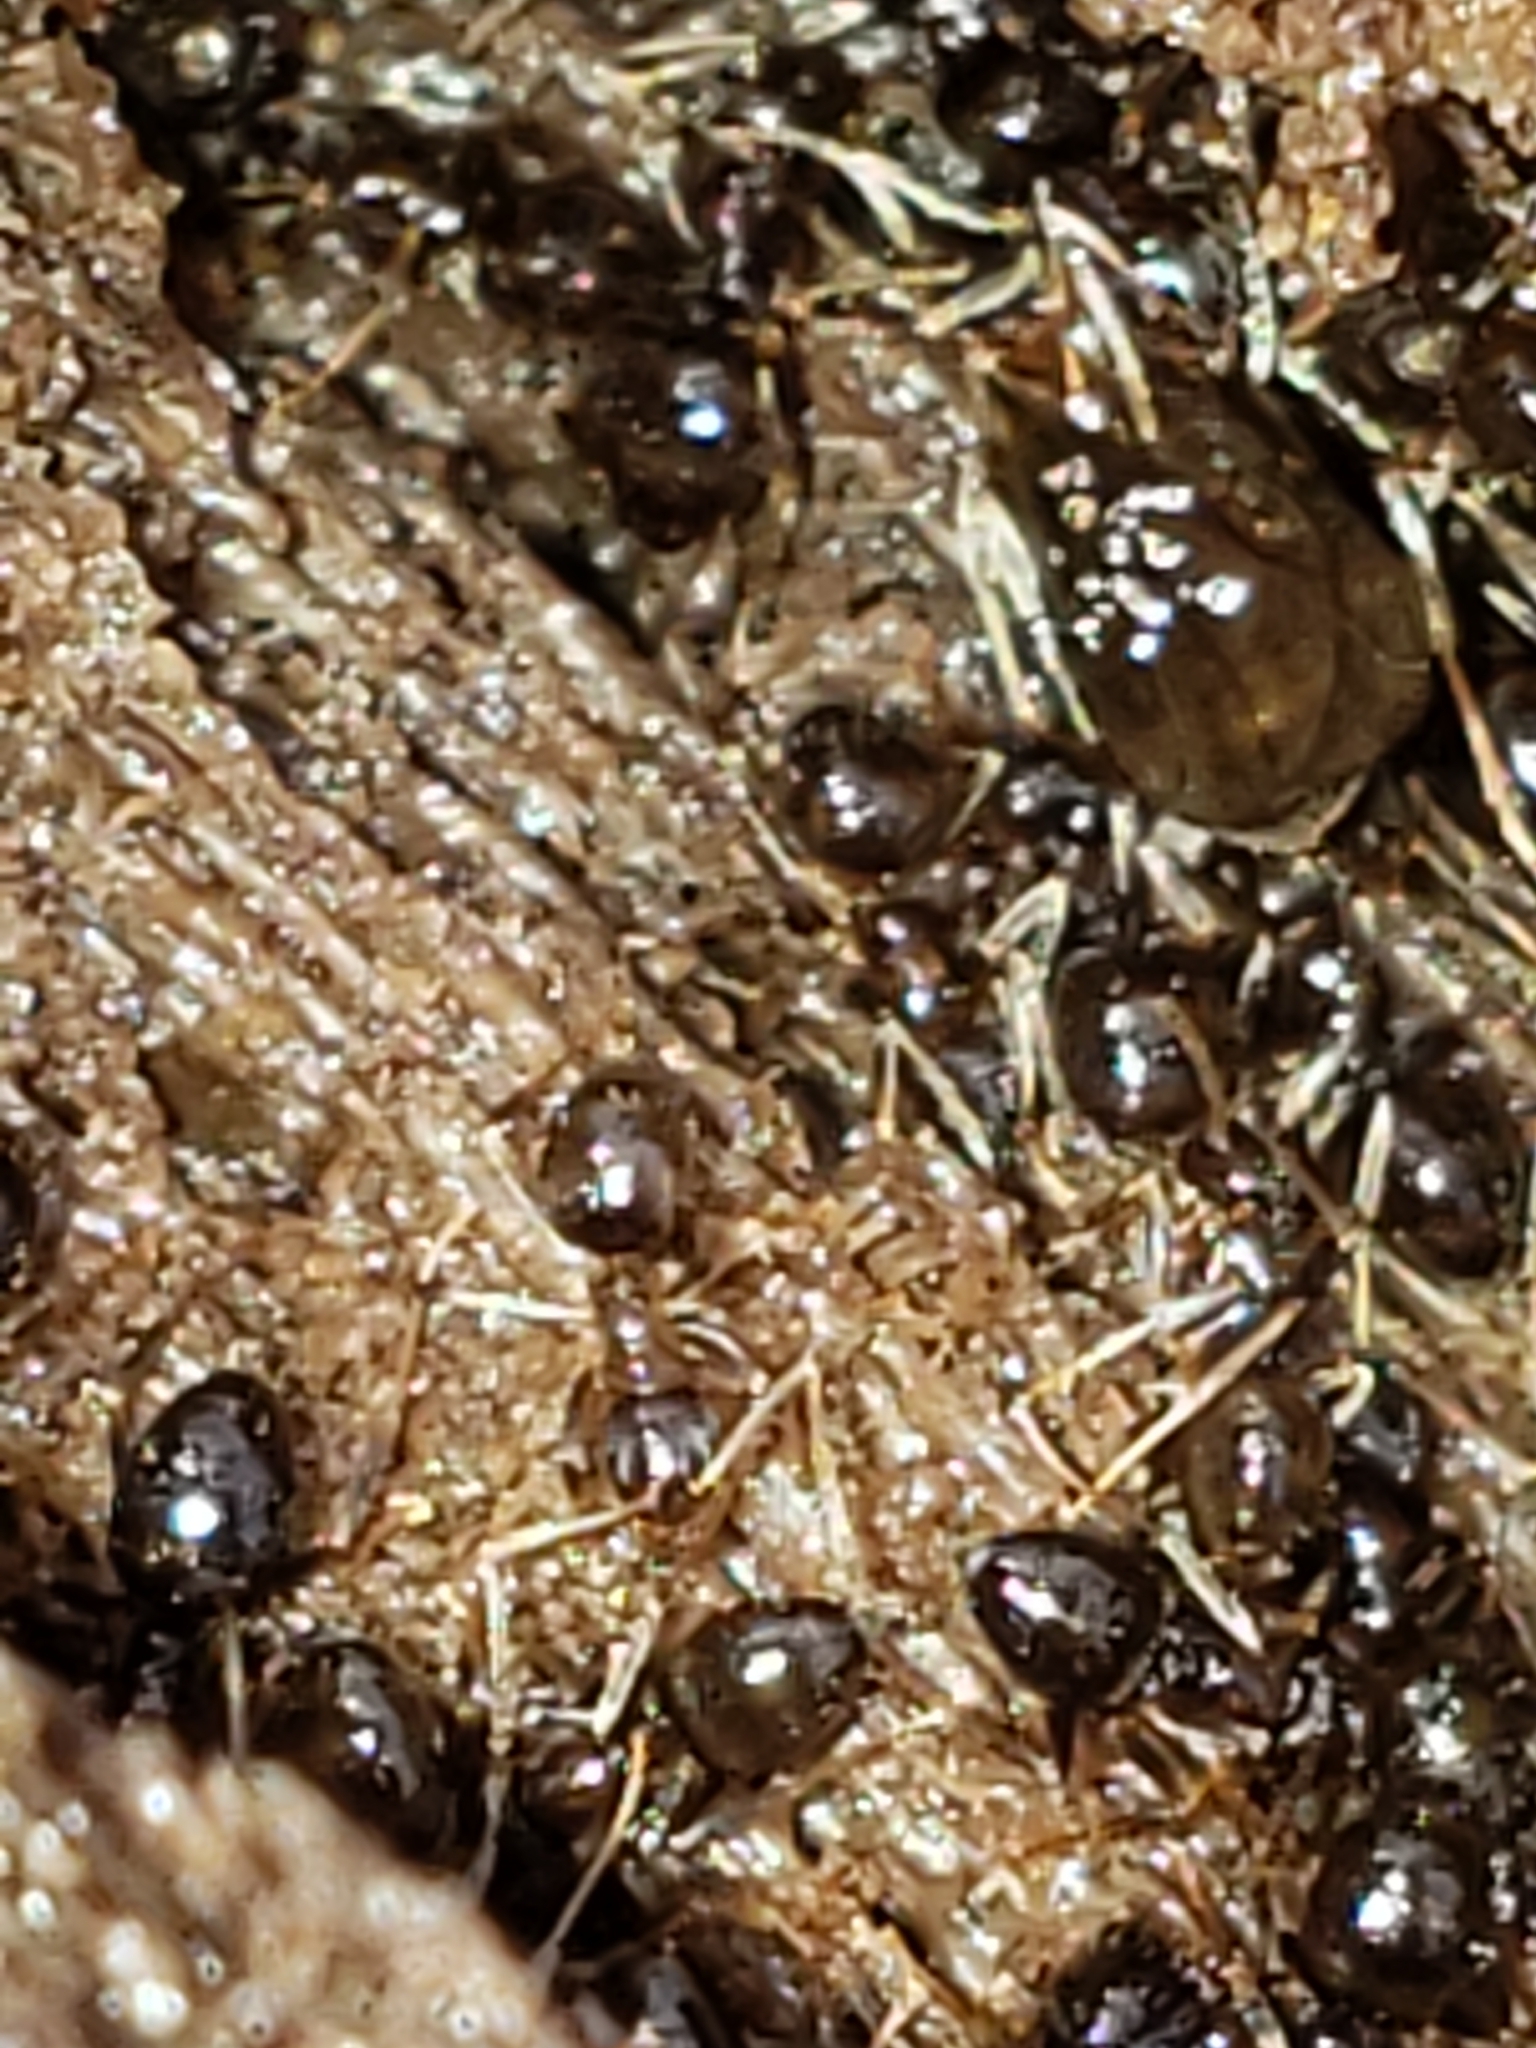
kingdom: Animalia
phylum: Arthropoda
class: Insecta
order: Hymenoptera
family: Formicidae
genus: Prenolepis
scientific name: Prenolepis imparis
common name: Small honey ant
